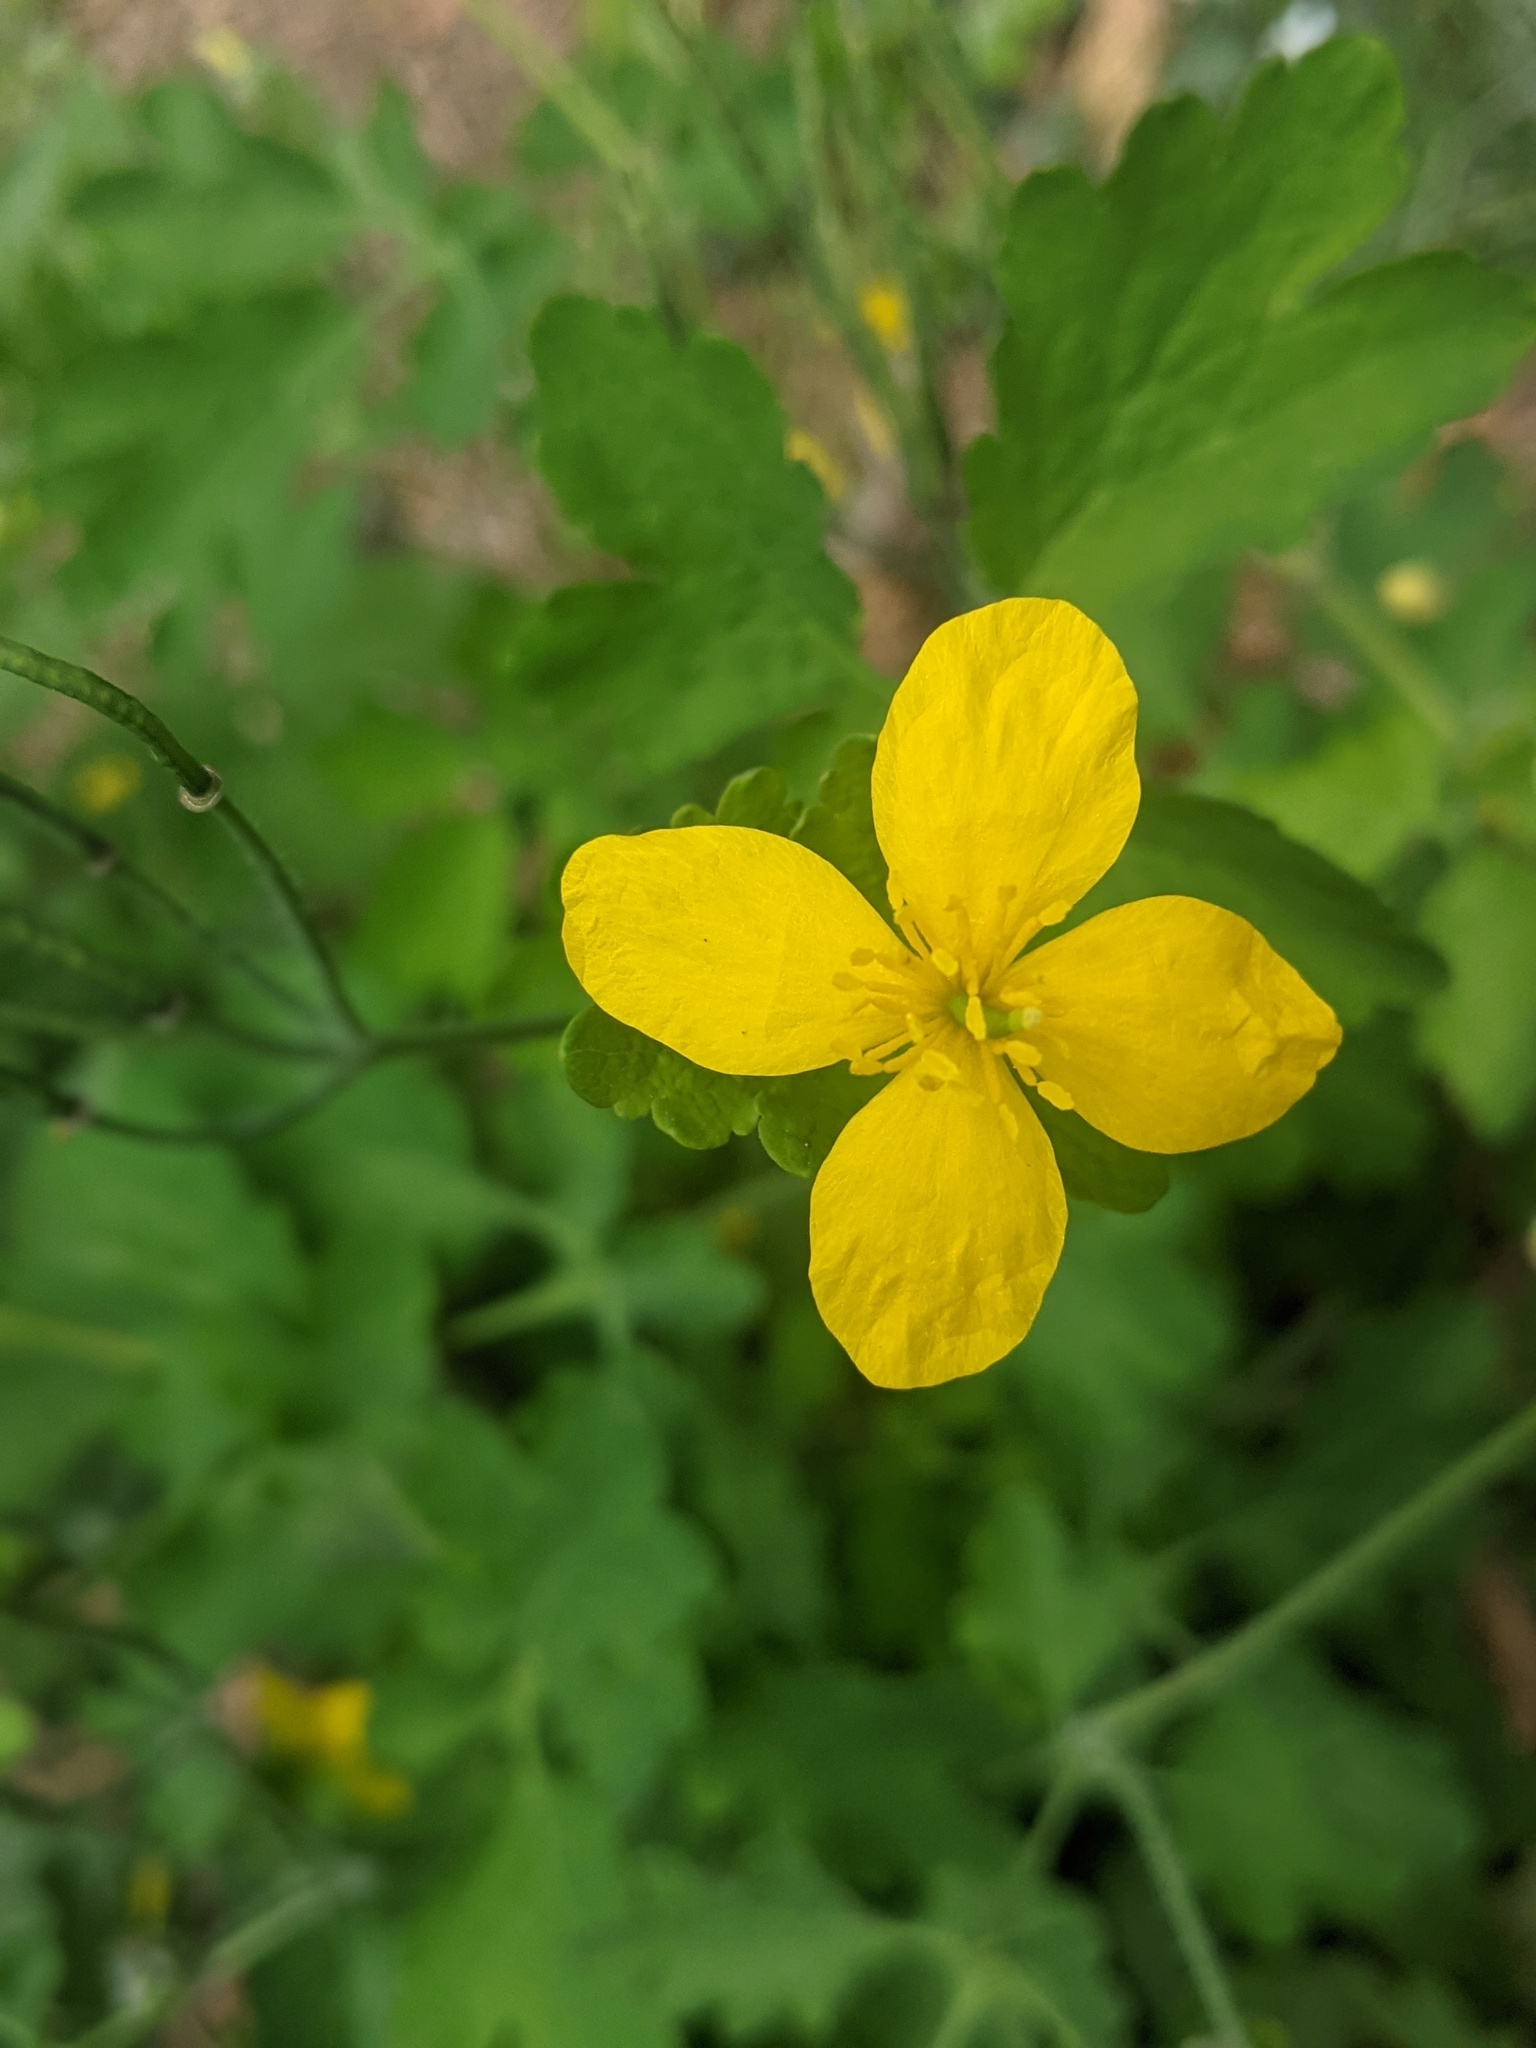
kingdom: Plantae
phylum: Tracheophyta
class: Magnoliopsida
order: Ranunculales
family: Papaveraceae
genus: Chelidonium
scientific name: Chelidonium majus
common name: Greater celandine
